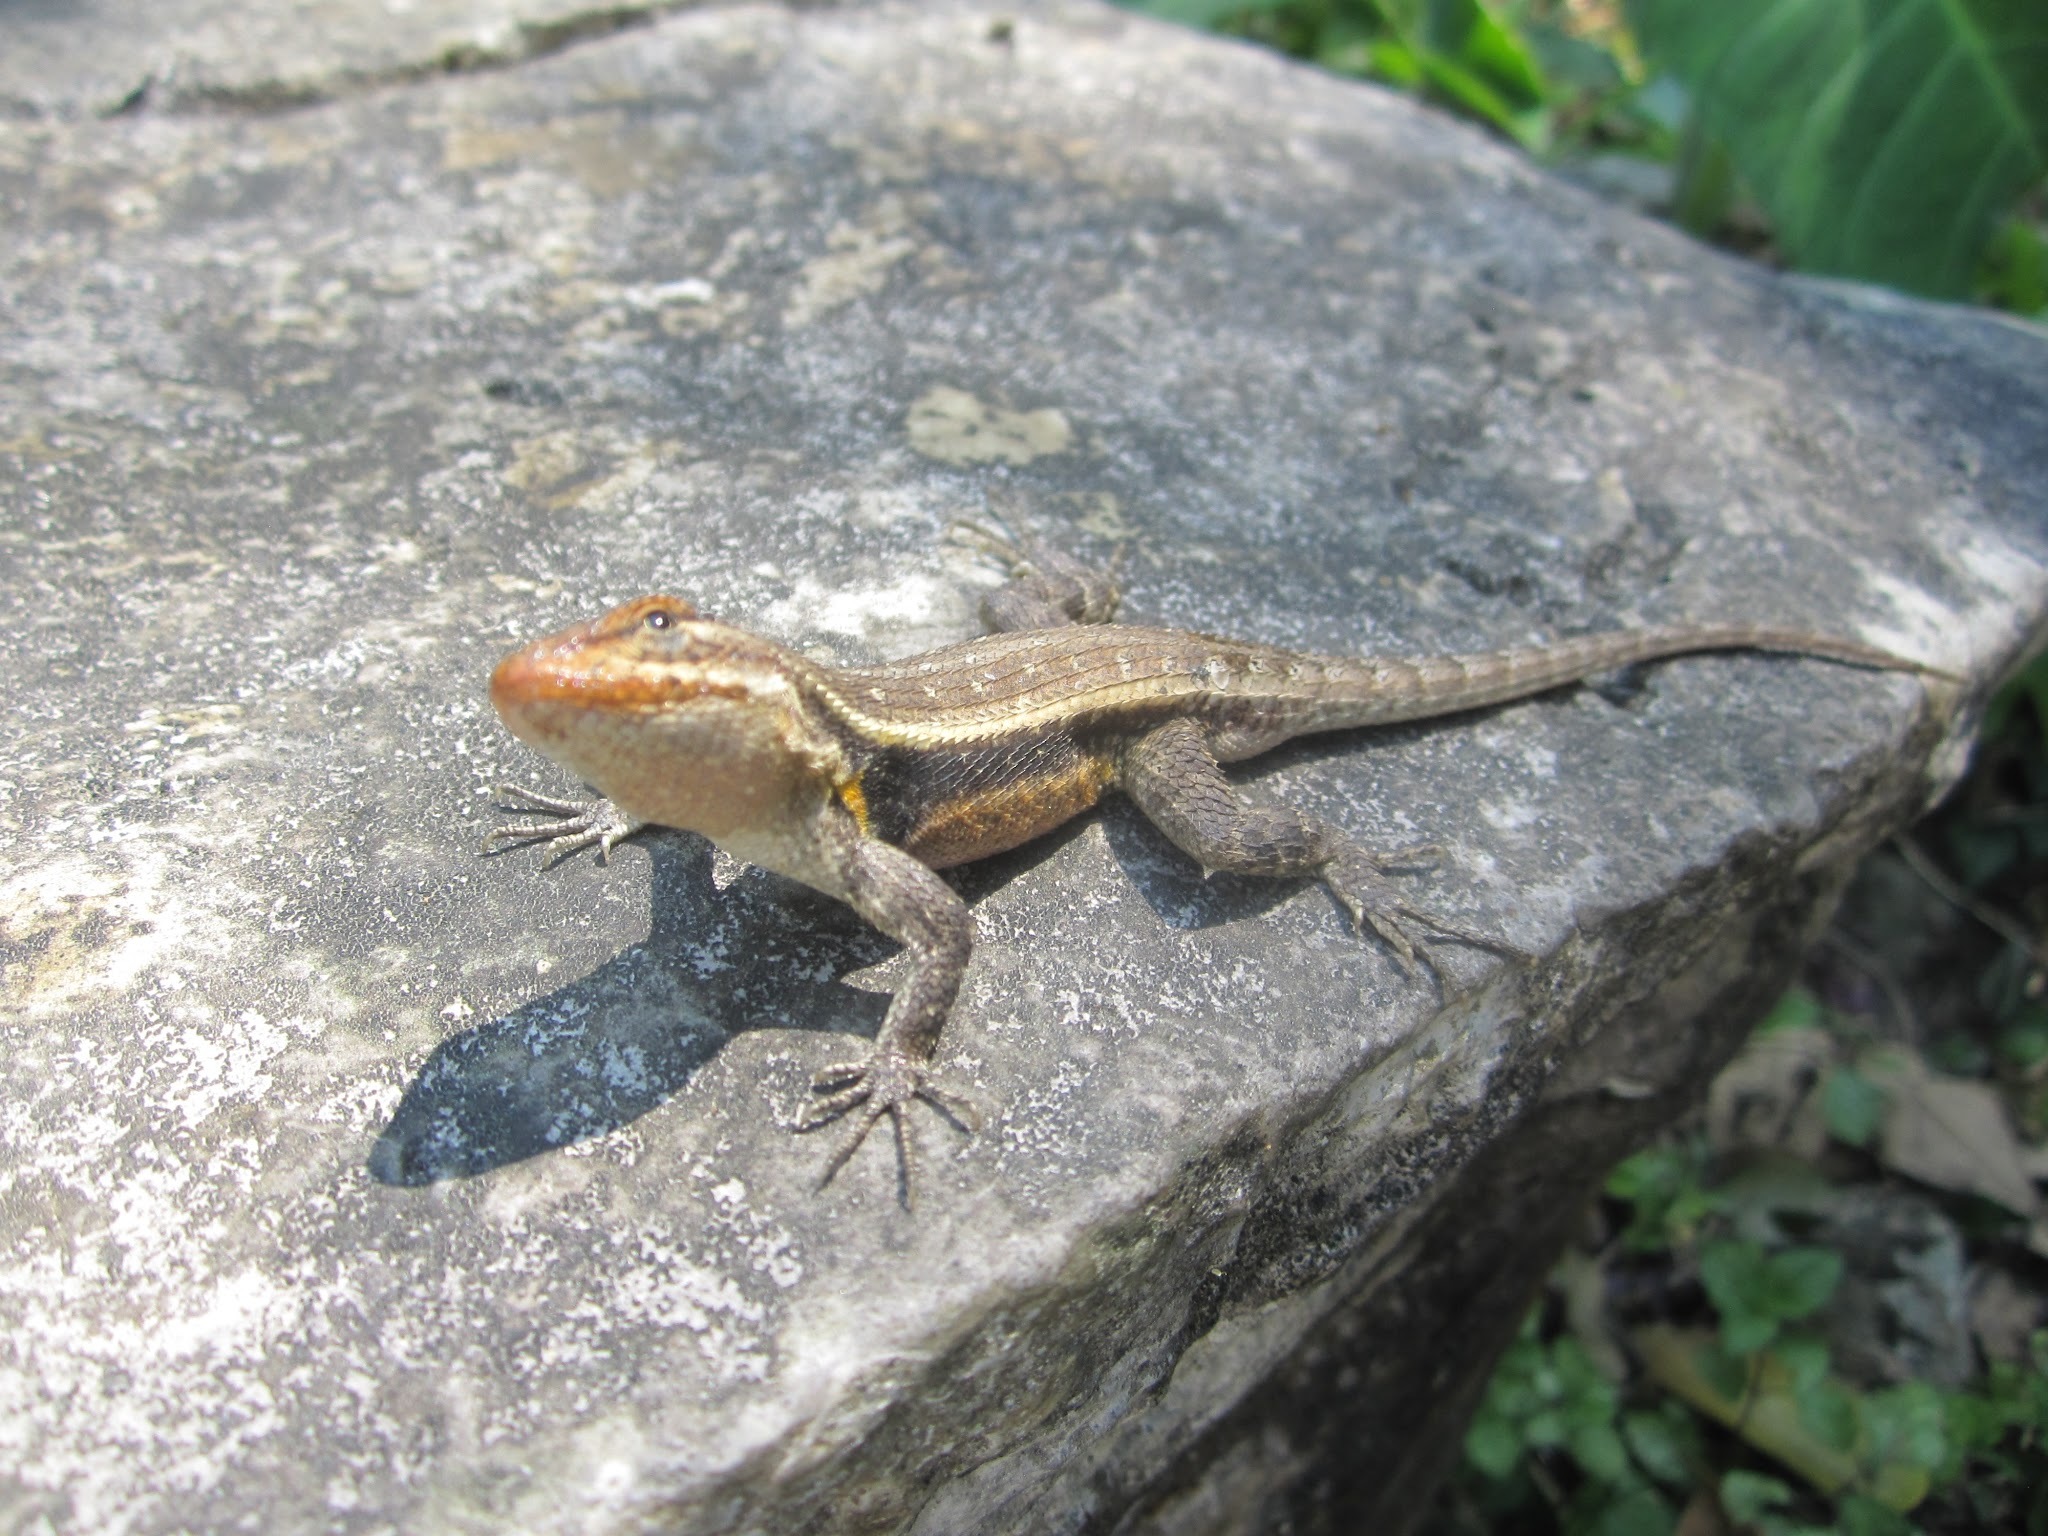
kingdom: Animalia
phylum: Chordata
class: Squamata
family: Phrynosomatidae
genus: Sceloporus
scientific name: Sceloporus teapensis
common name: Teapen rosebelly lizard
